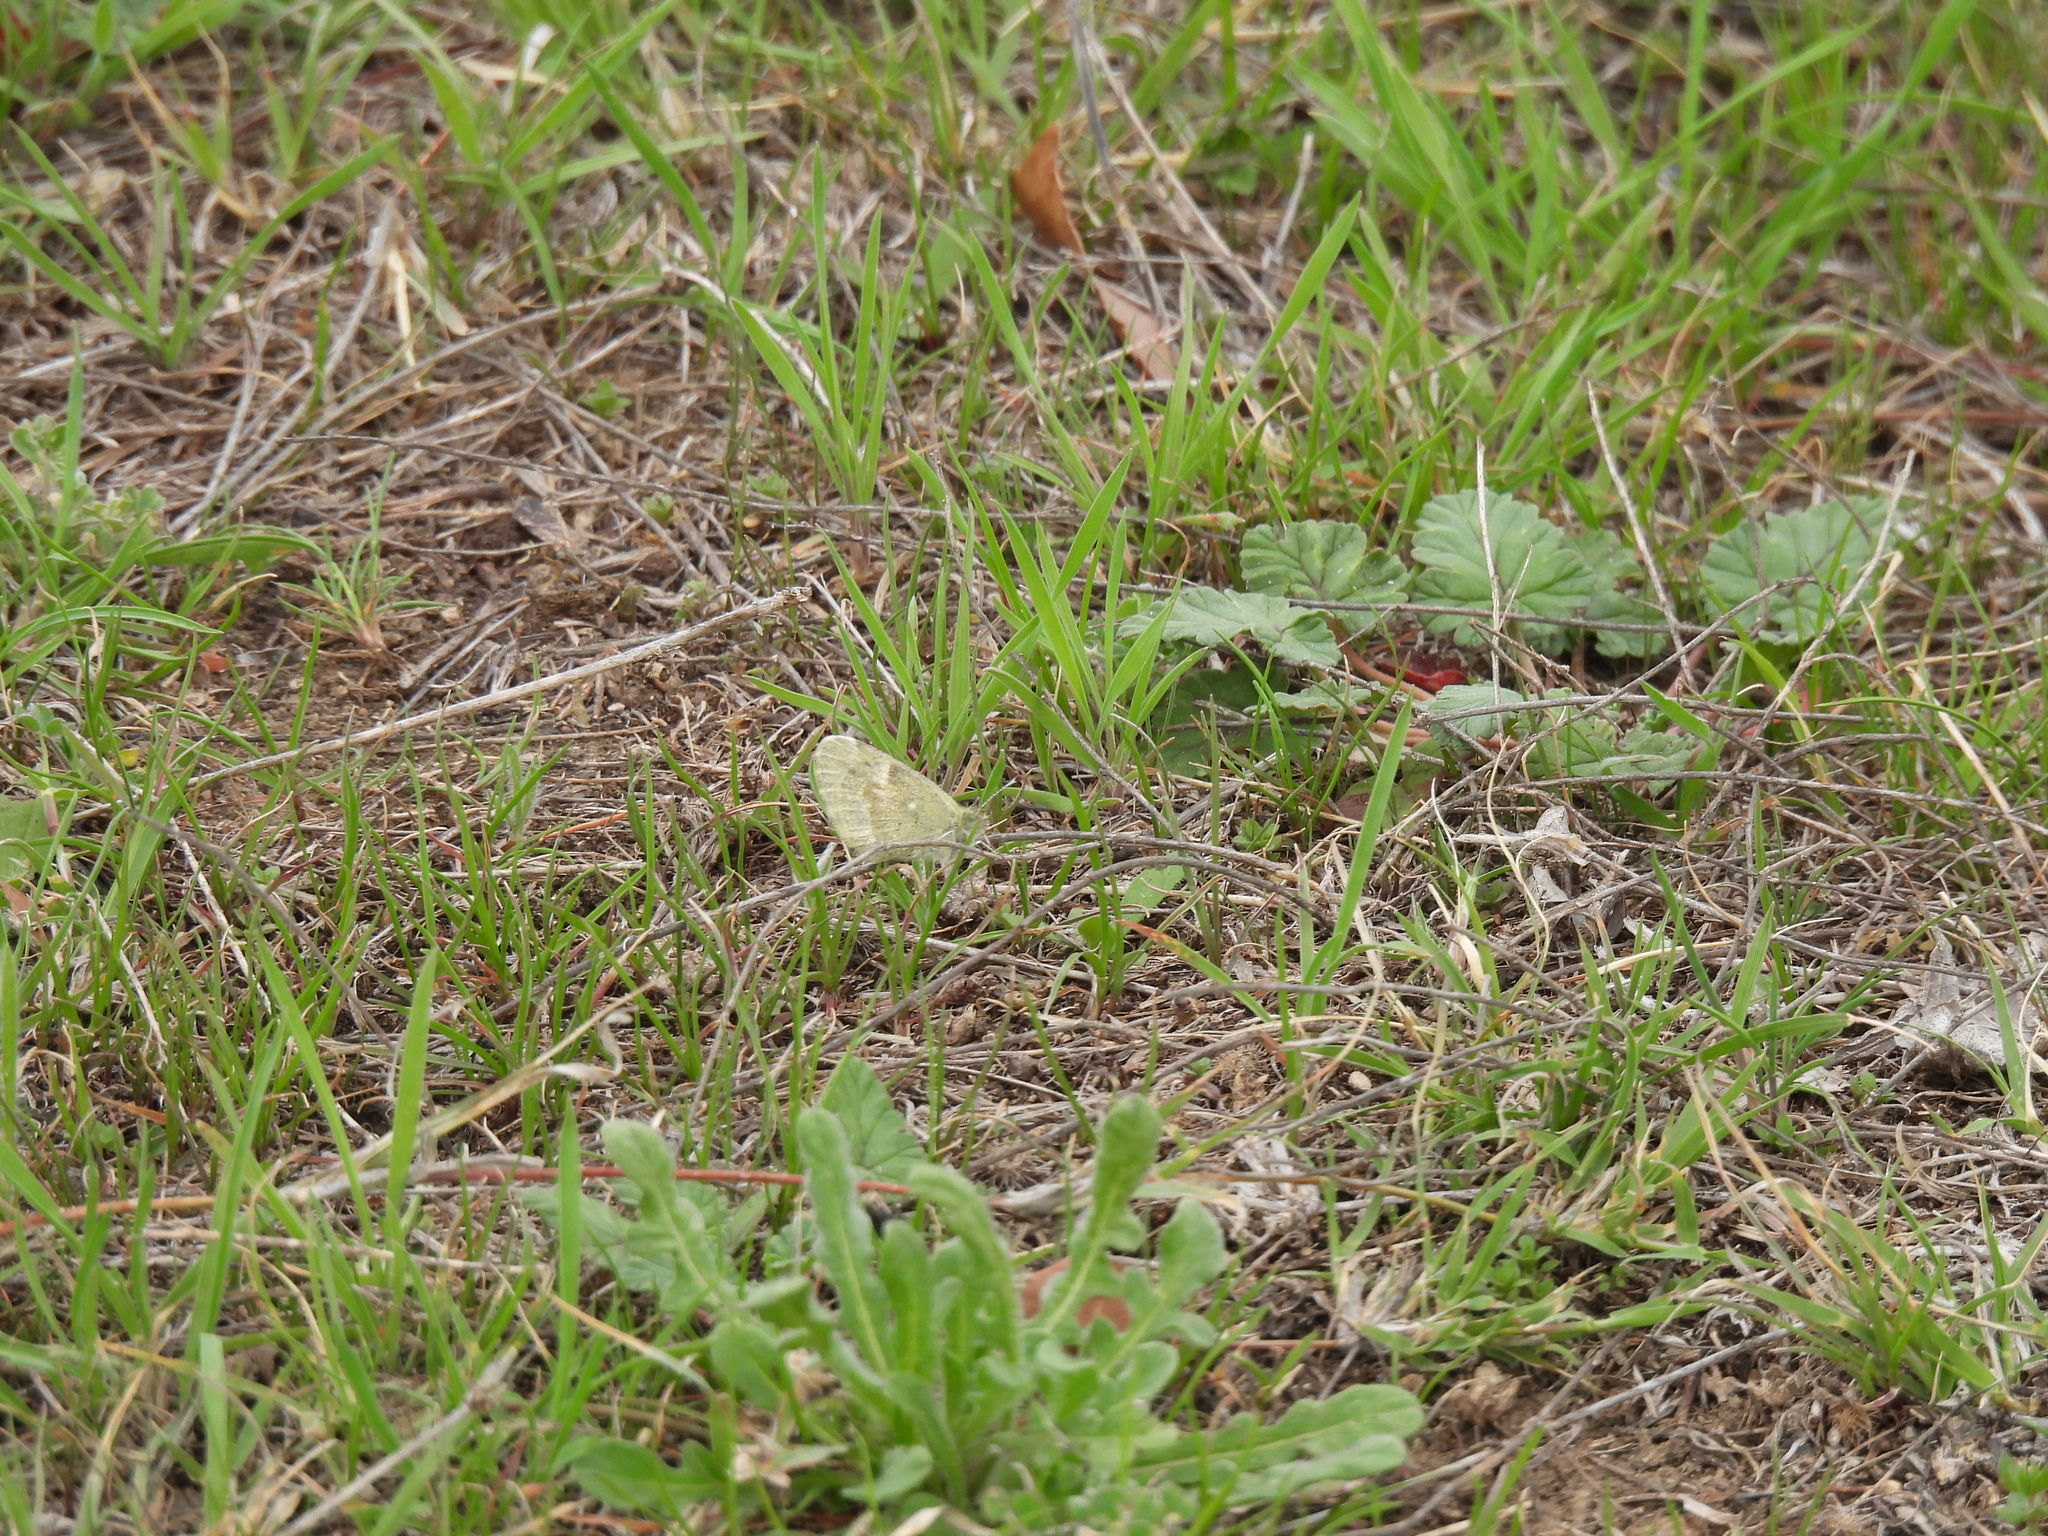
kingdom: Animalia
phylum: Arthropoda
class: Insecta
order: Lepidoptera
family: Pieridae
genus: Nathalis
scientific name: Nathalis iole
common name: Dainty sulphur
